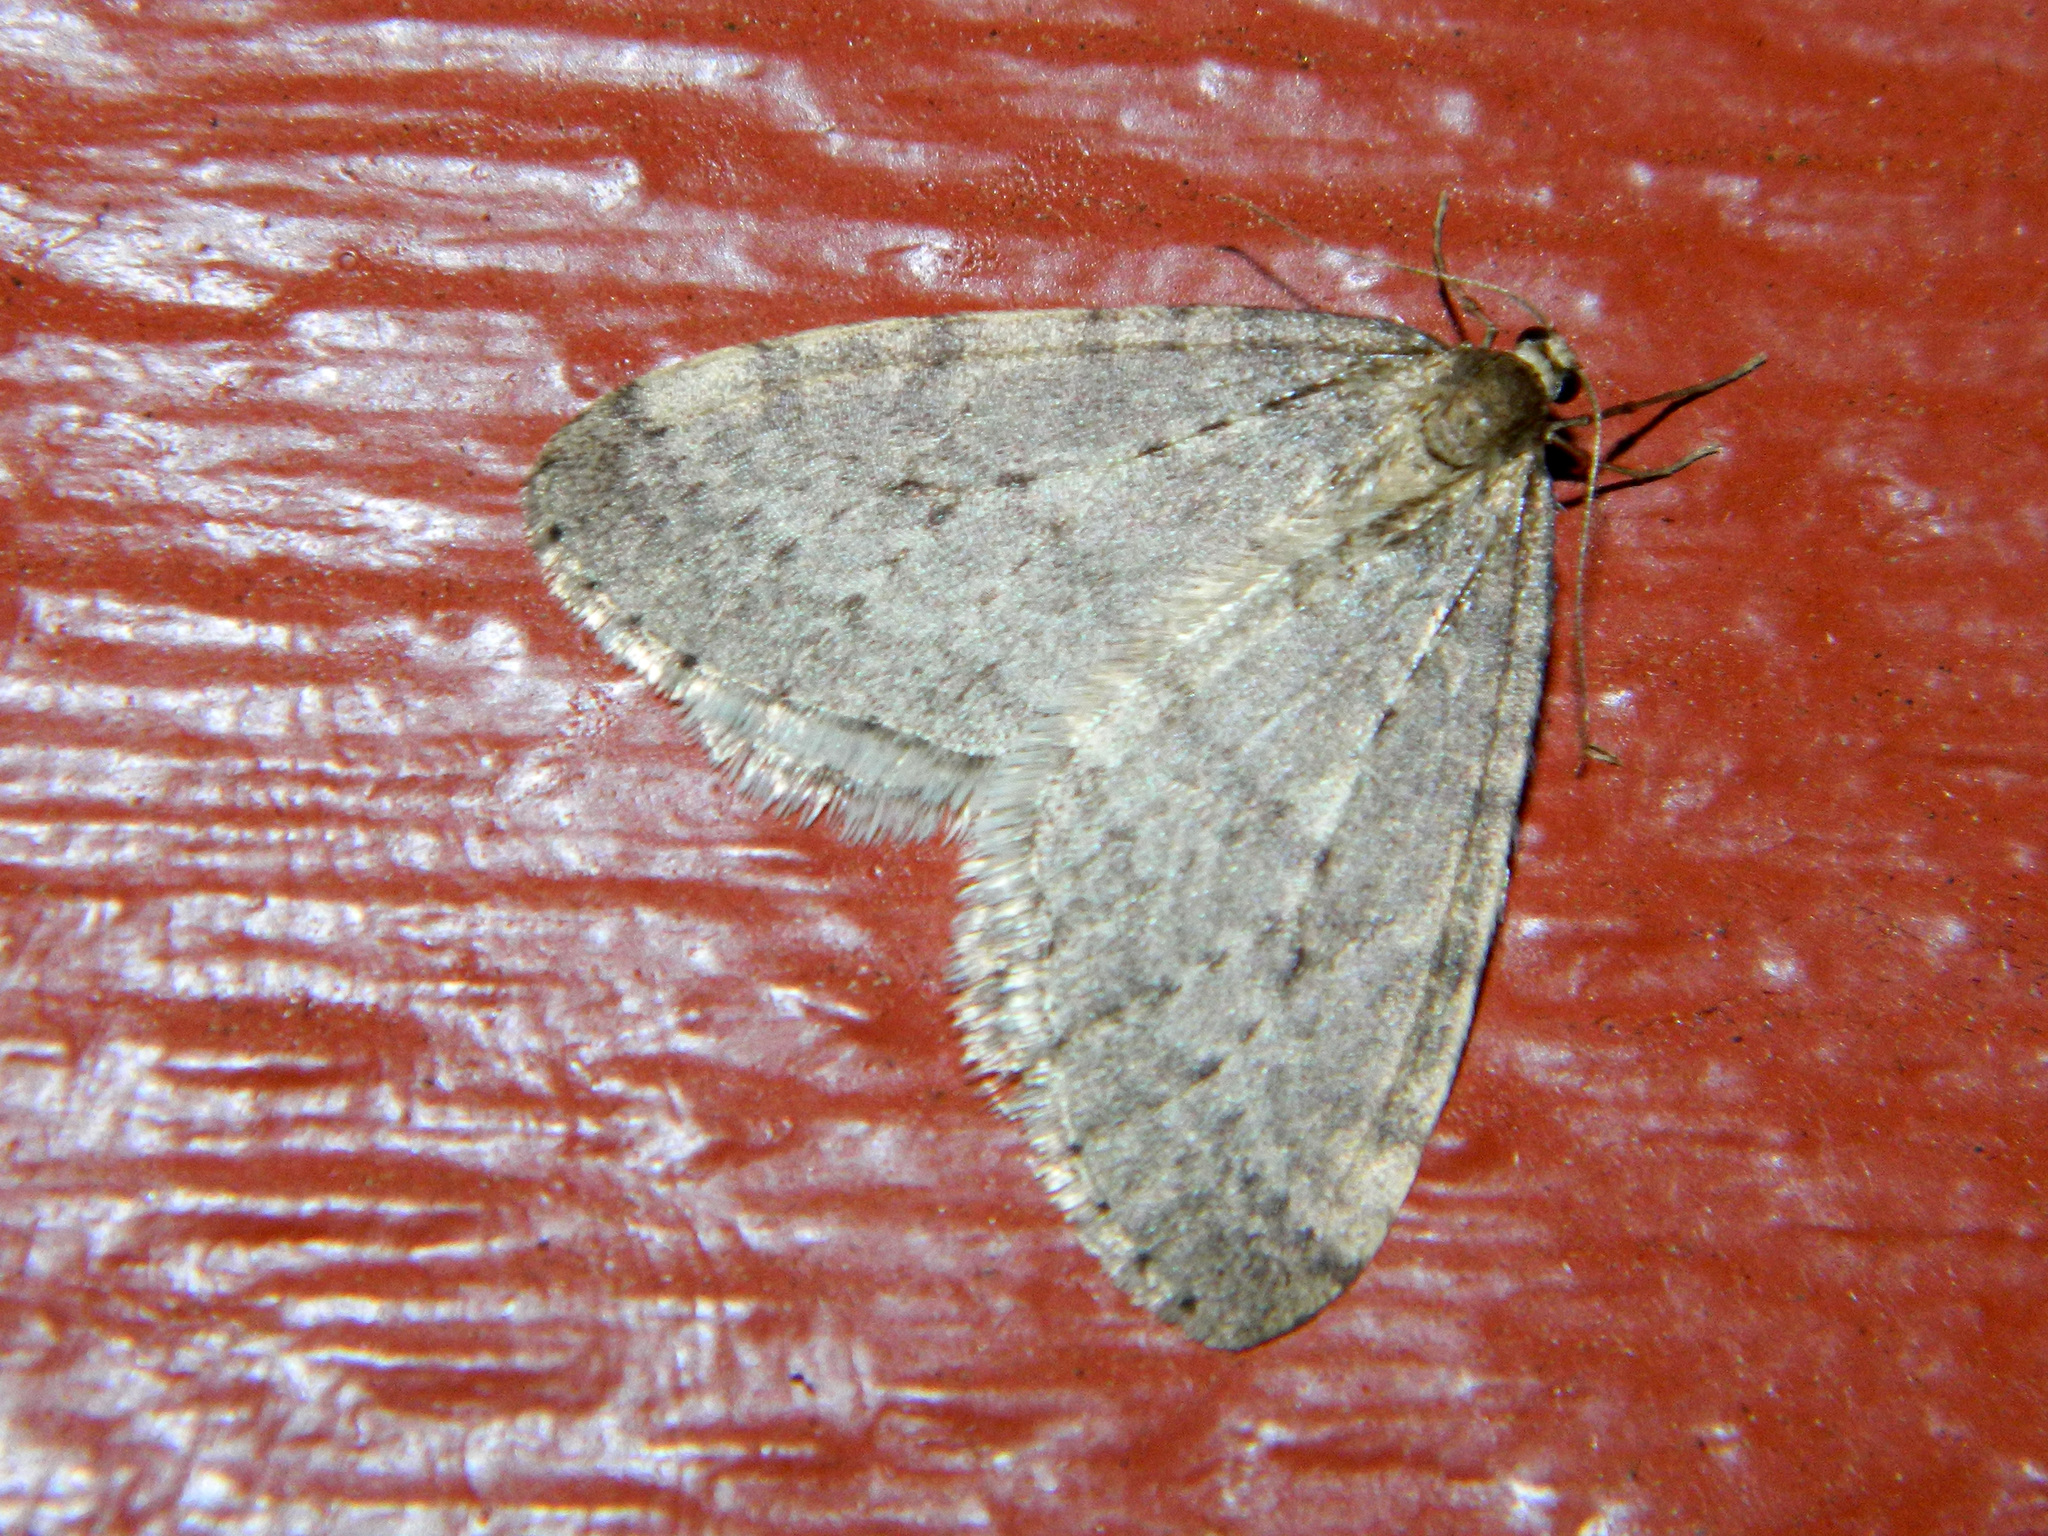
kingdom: Animalia
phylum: Arthropoda
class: Insecta
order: Lepidoptera
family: Geometridae
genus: Operophtera
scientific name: Operophtera bruceata
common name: Bruce spanworm
